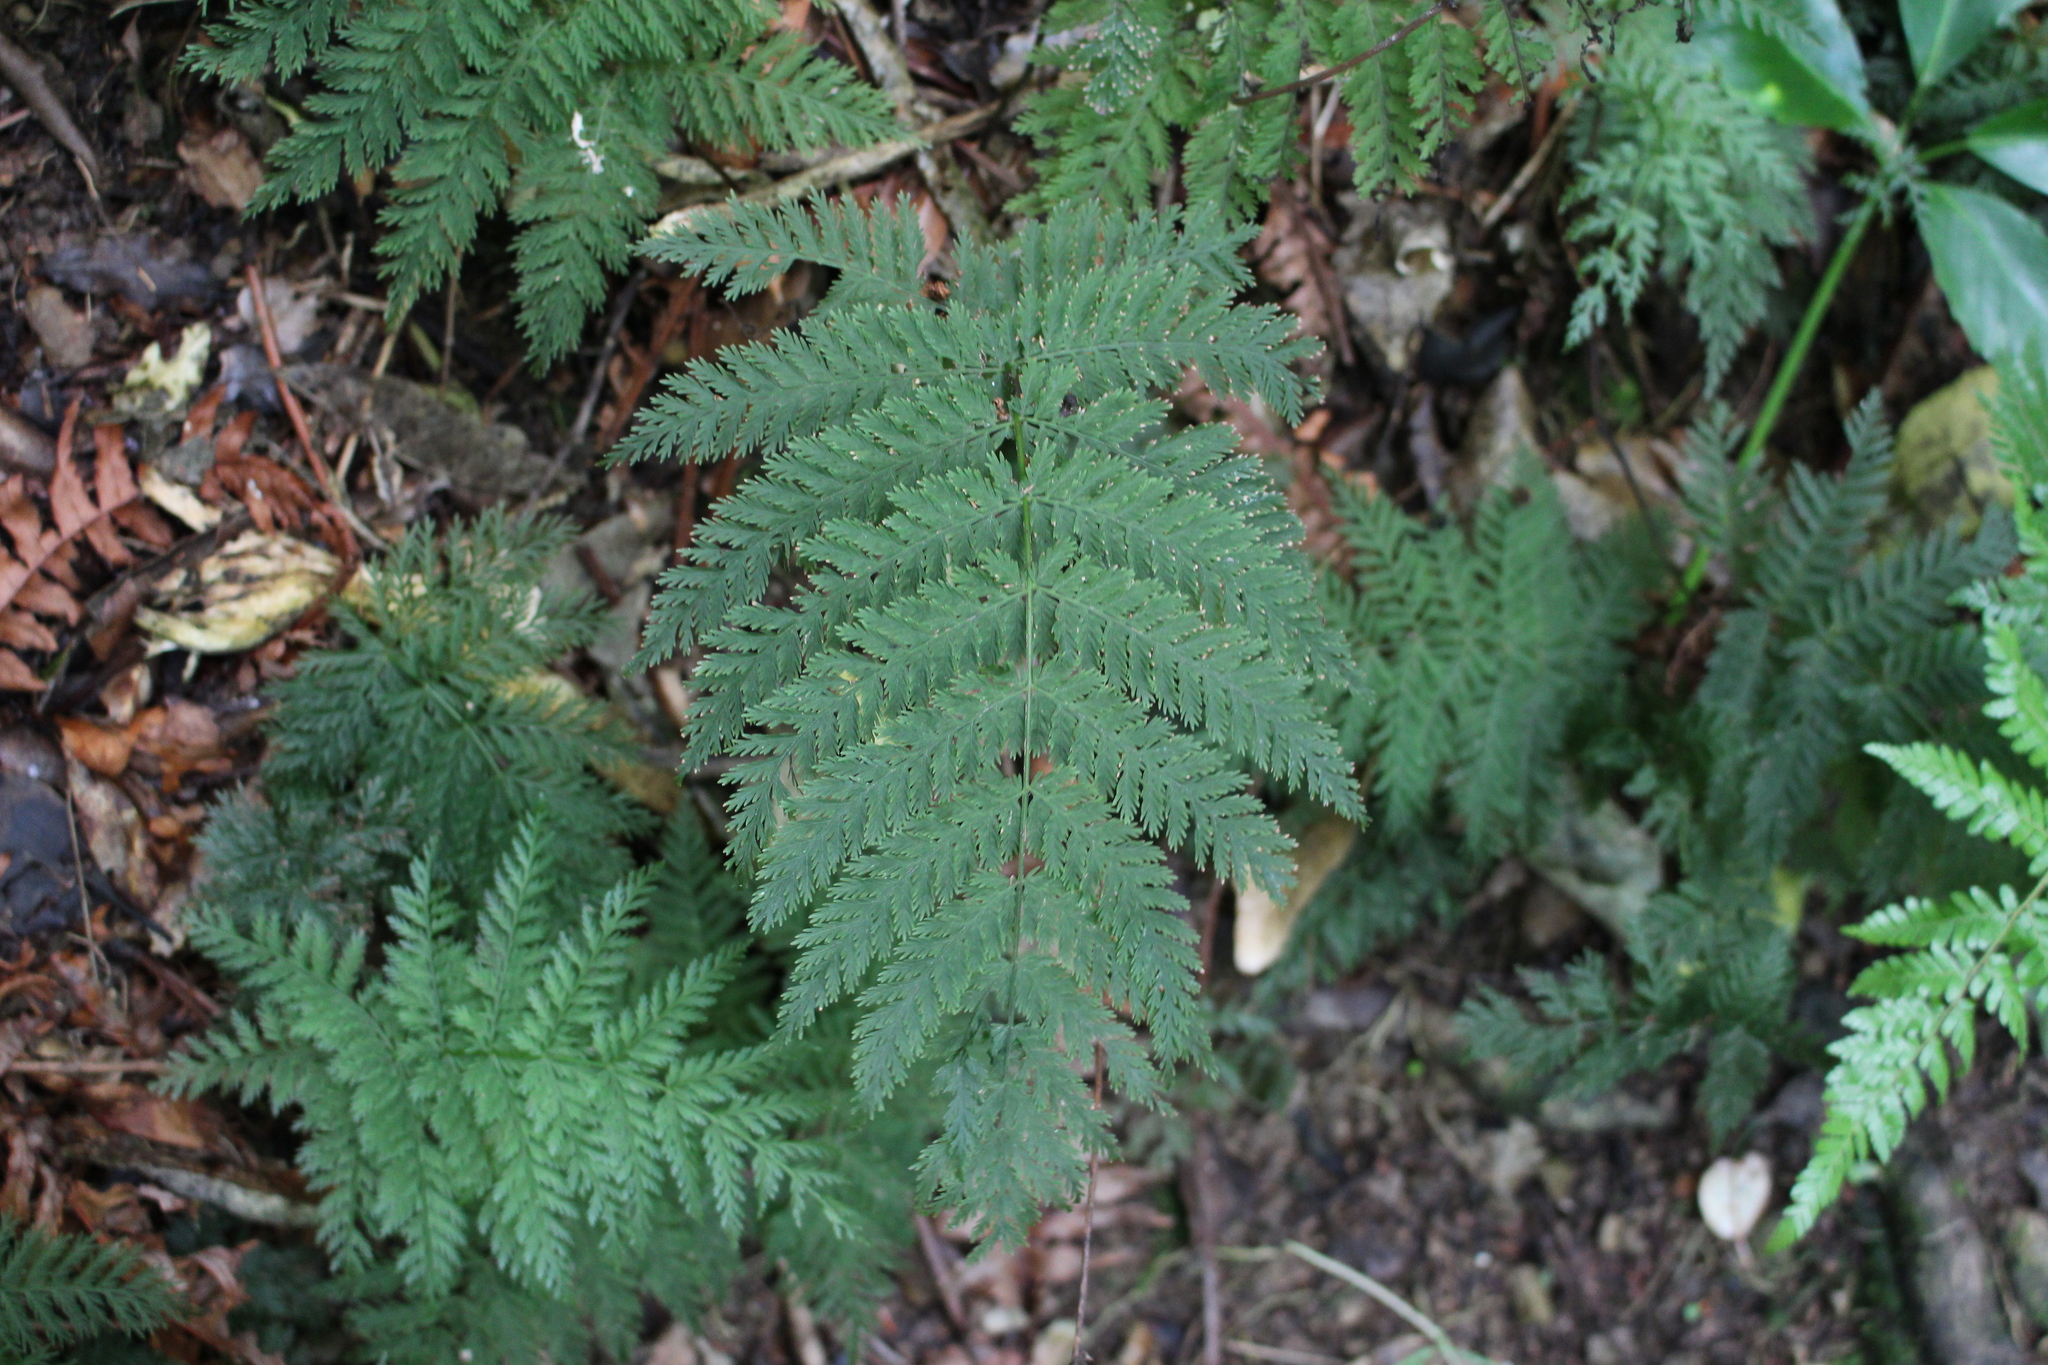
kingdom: Plantae
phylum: Tracheophyta
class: Polypodiopsida
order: Osmundales
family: Osmundaceae
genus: Leptopteris
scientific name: Leptopteris hymenophylloides
